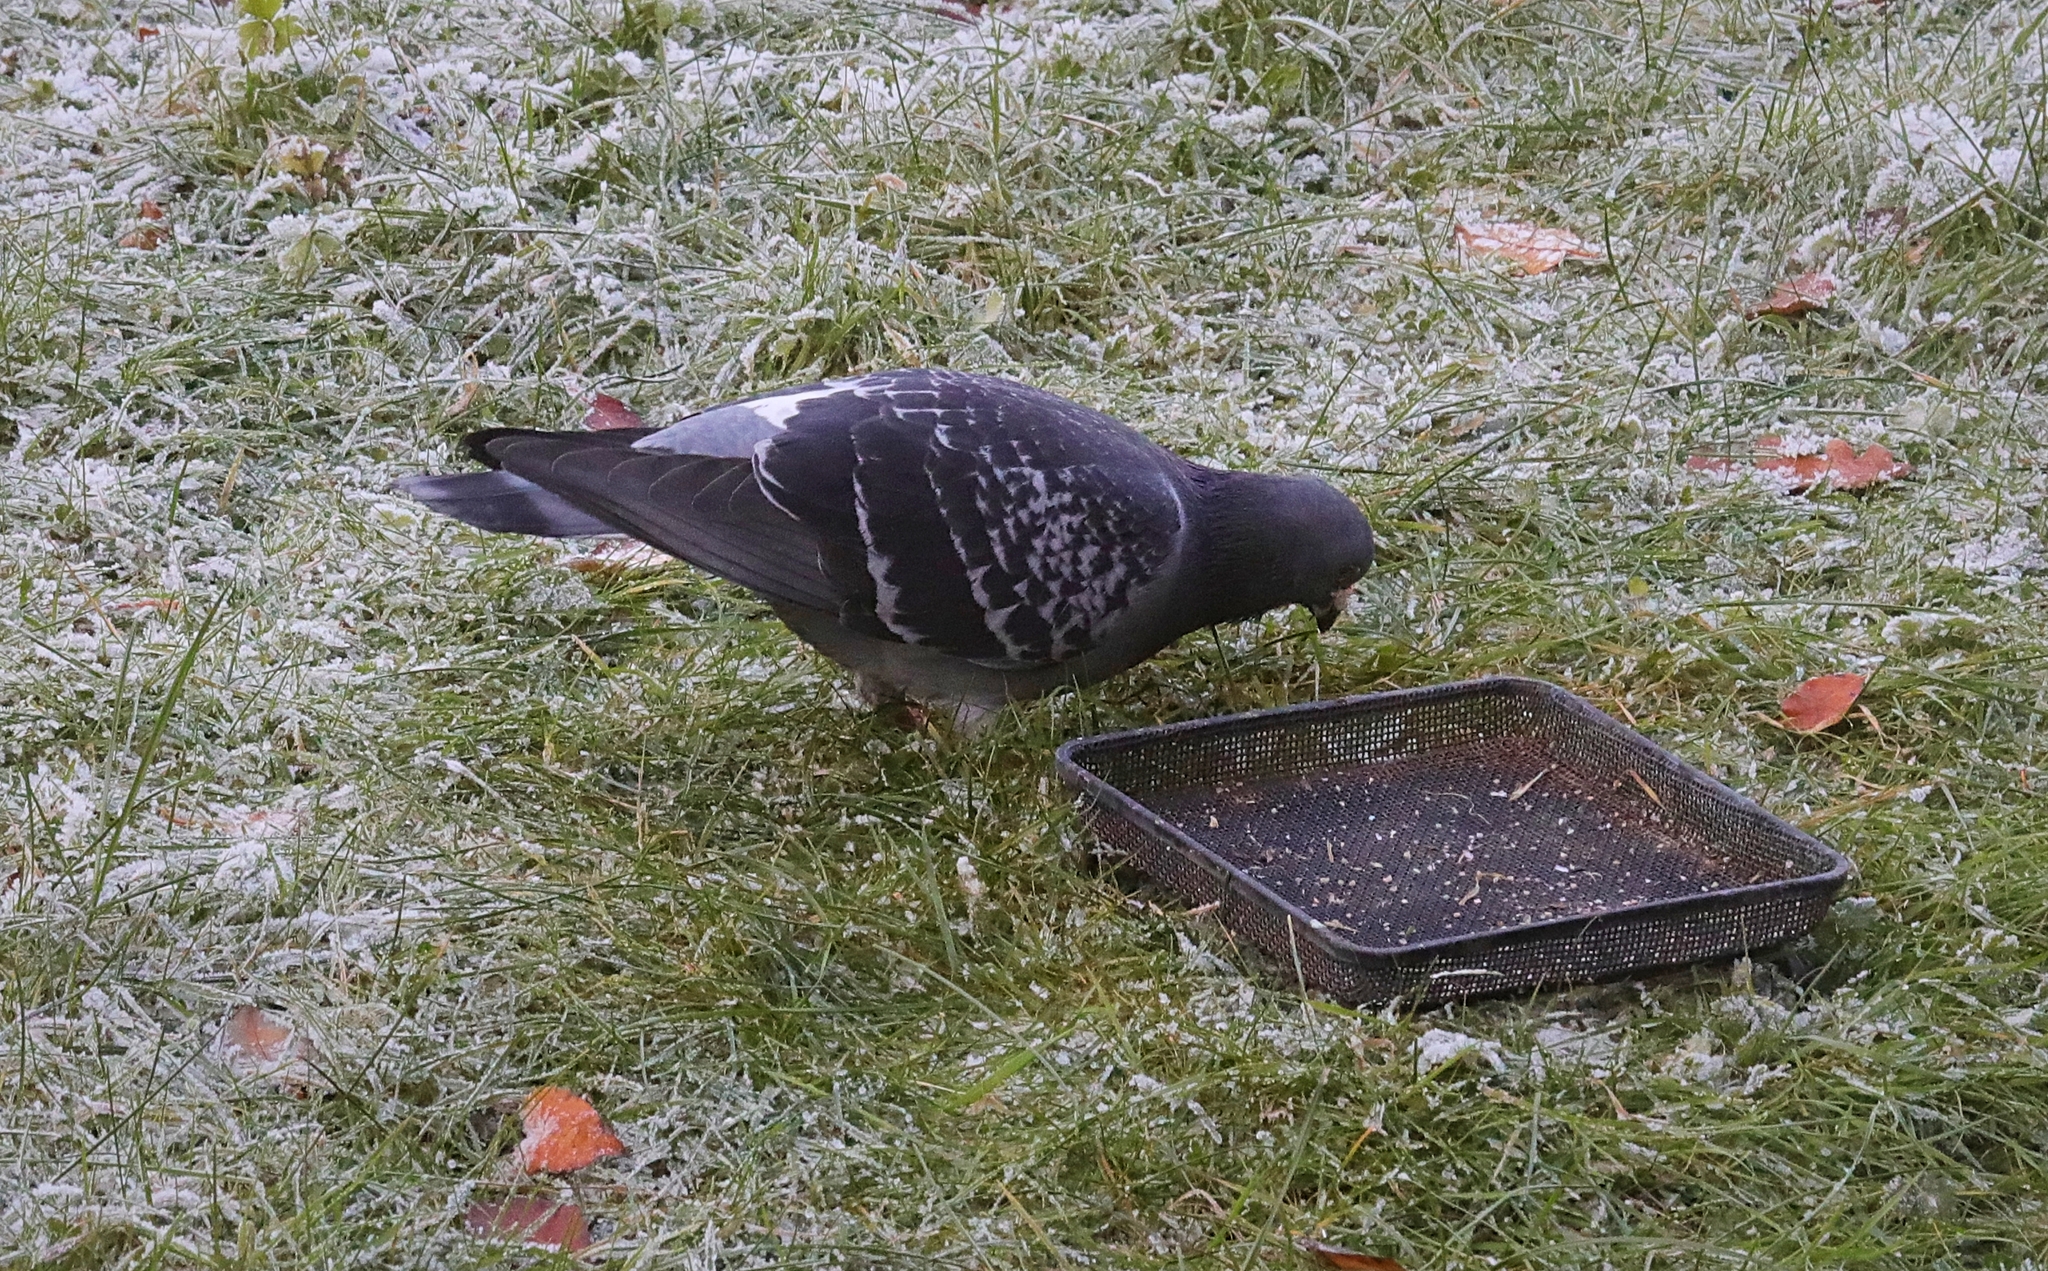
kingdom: Animalia
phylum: Chordata
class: Aves
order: Columbiformes
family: Columbidae
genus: Columba
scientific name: Columba livia
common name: Rock pigeon
